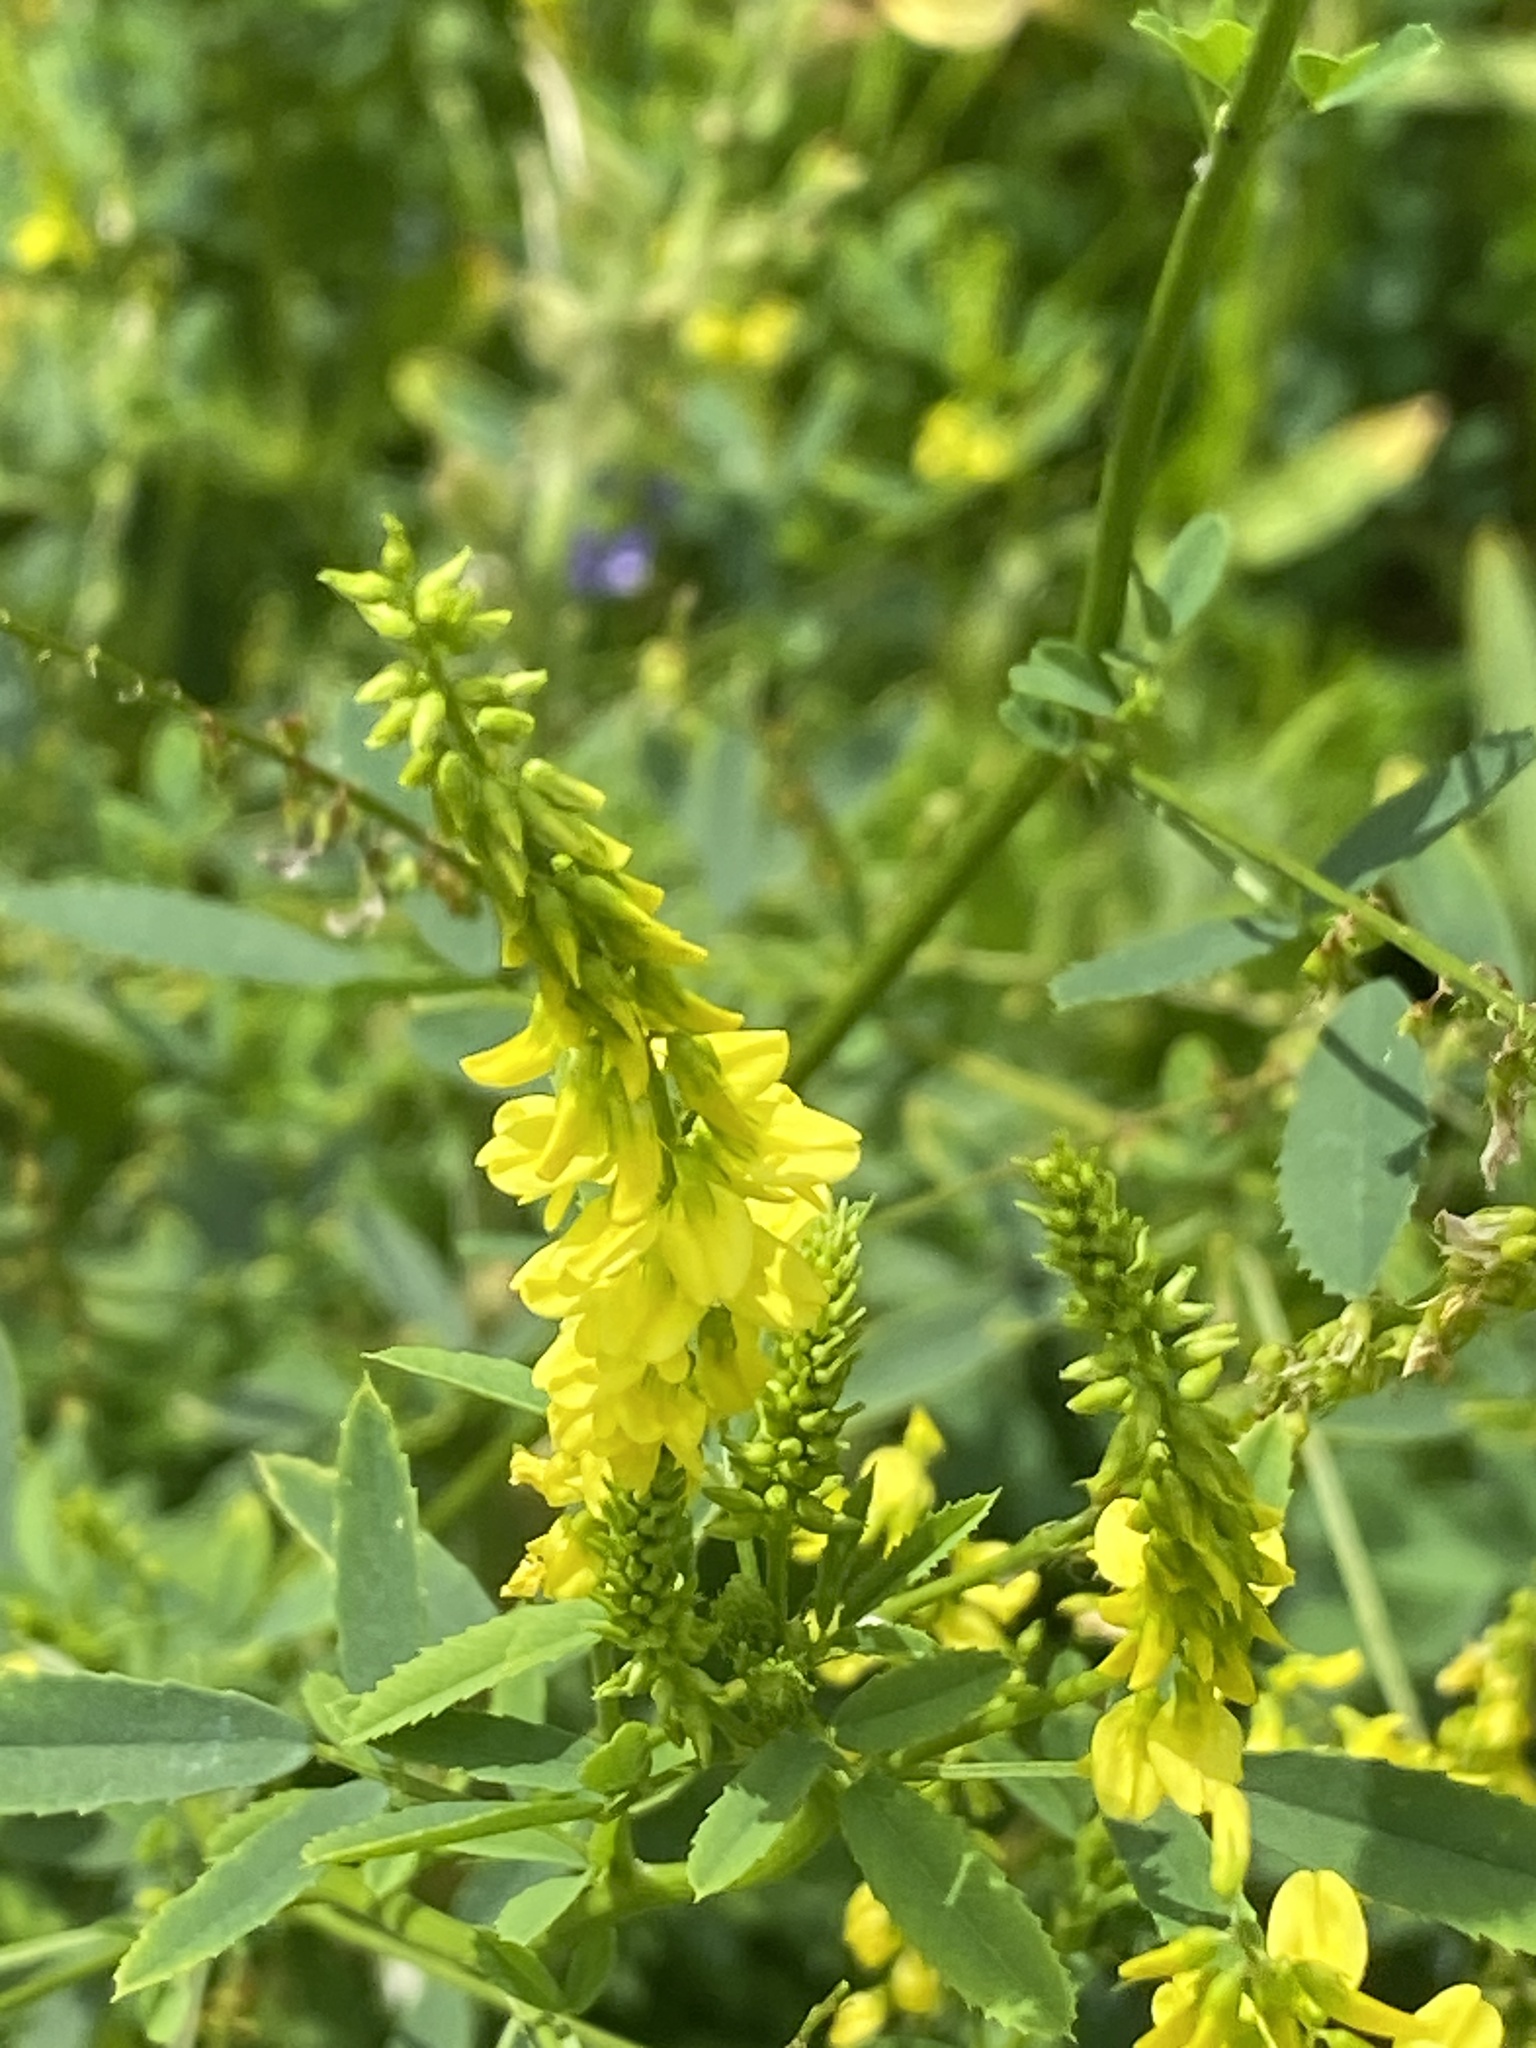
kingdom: Plantae
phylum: Tracheophyta
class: Magnoliopsida
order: Fabales
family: Fabaceae
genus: Melilotus
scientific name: Melilotus officinalis
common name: Sweetclover
